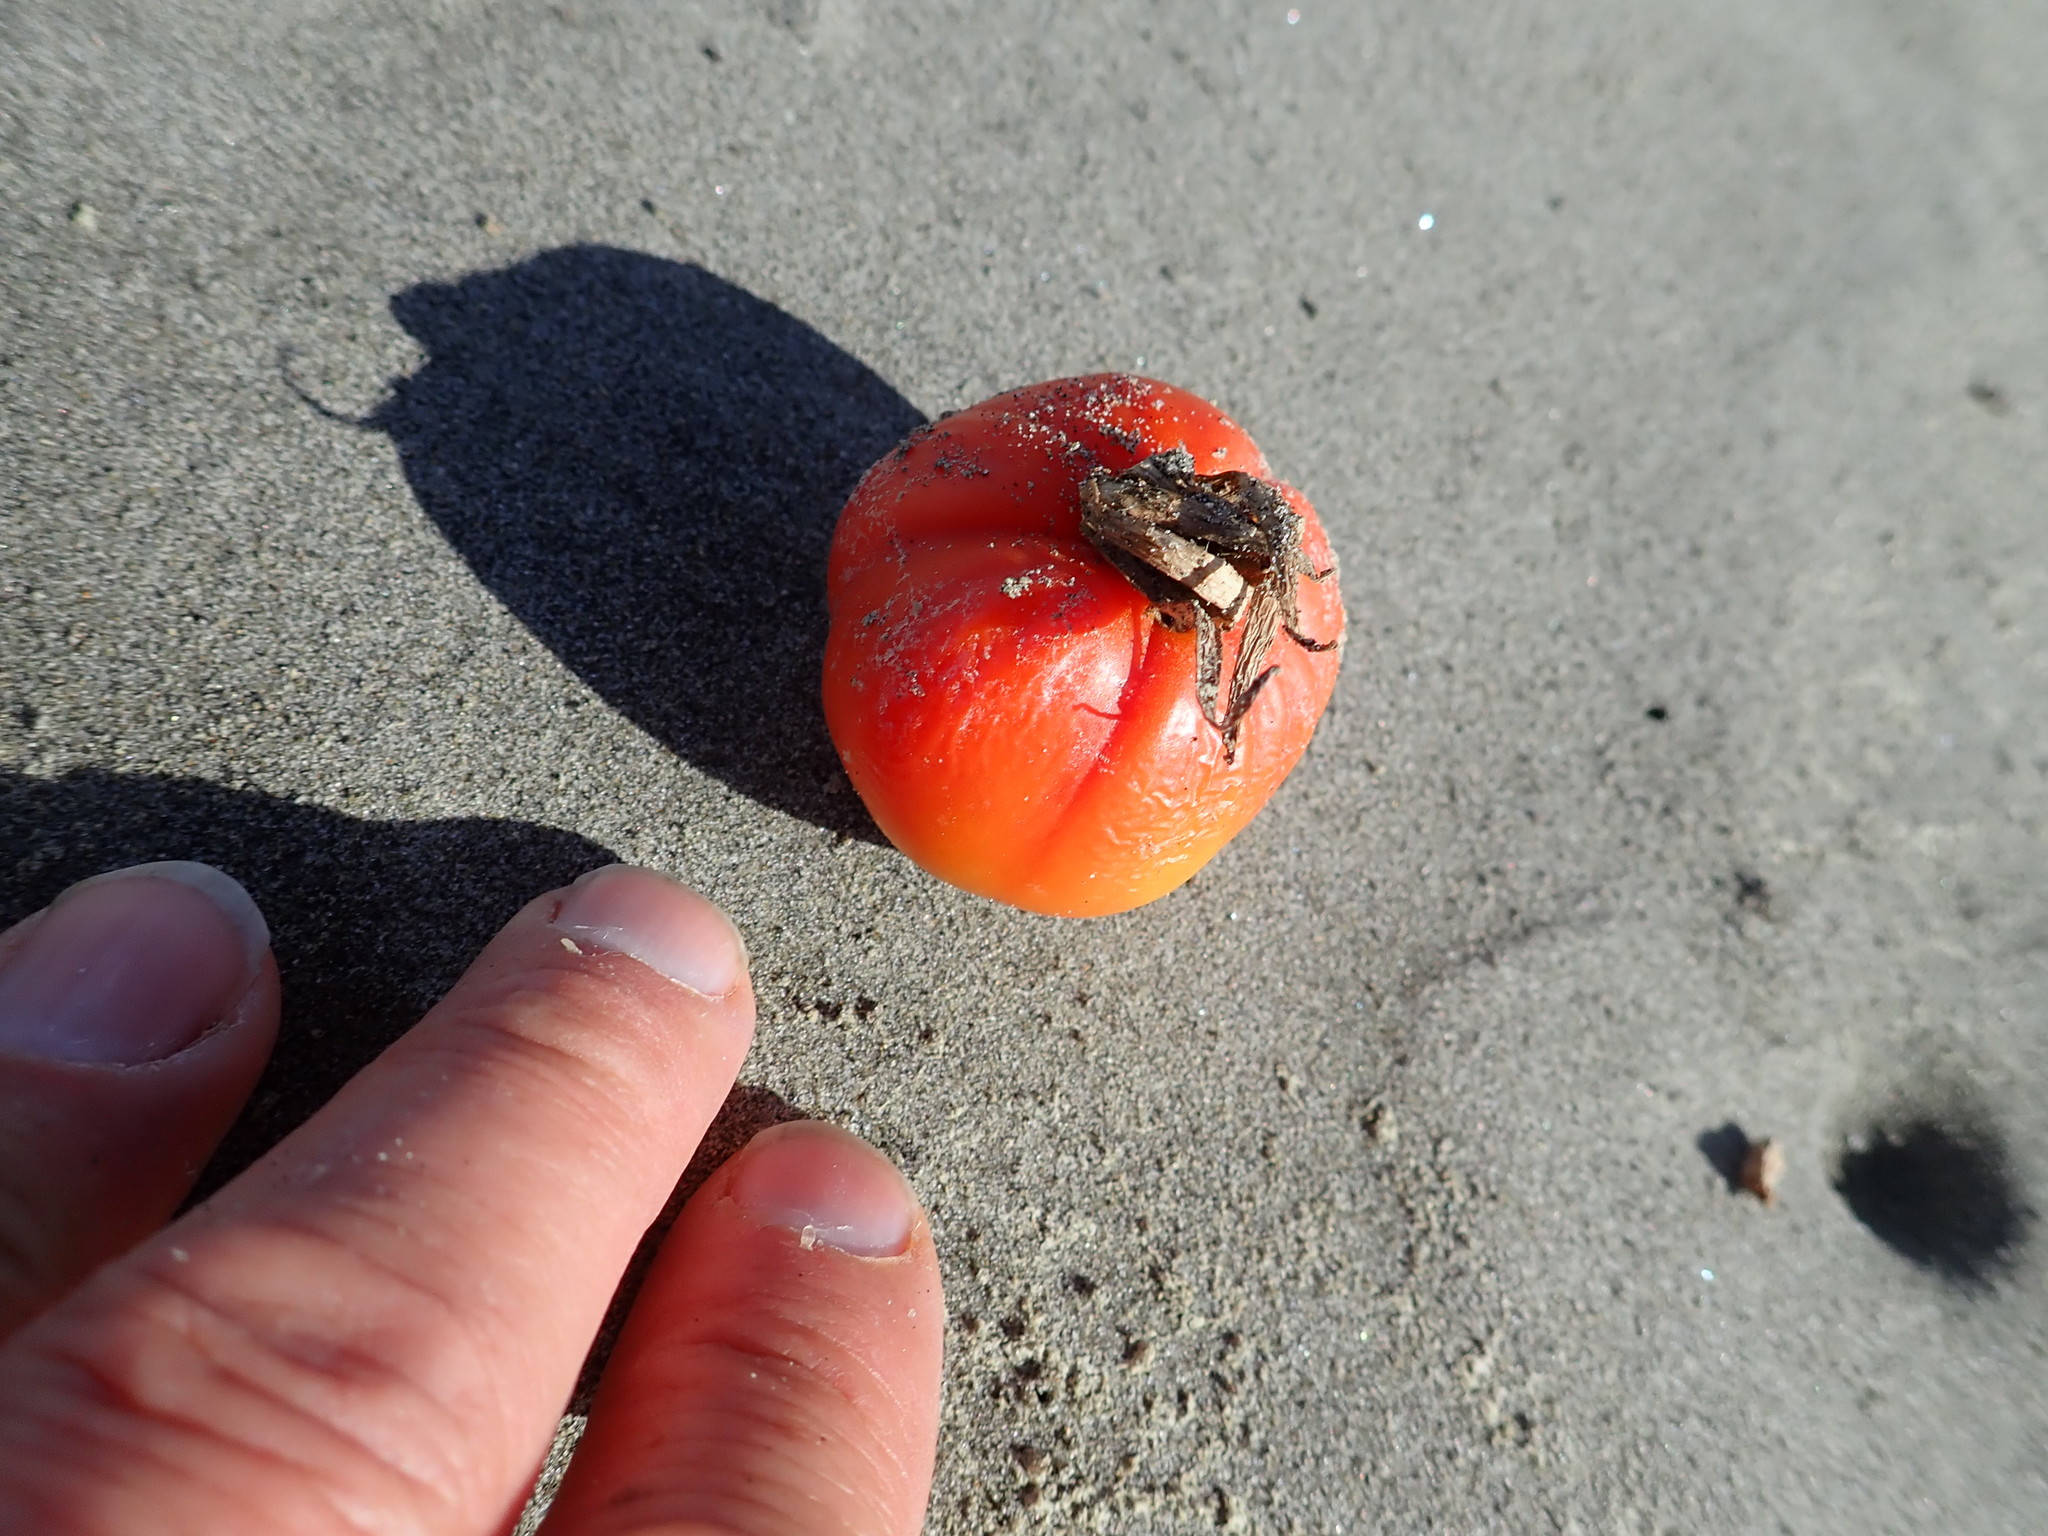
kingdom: Plantae
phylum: Tracheophyta
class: Magnoliopsida
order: Solanales
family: Solanaceae
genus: Solanum
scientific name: Solanum lycopersicum
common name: Garden tomato
